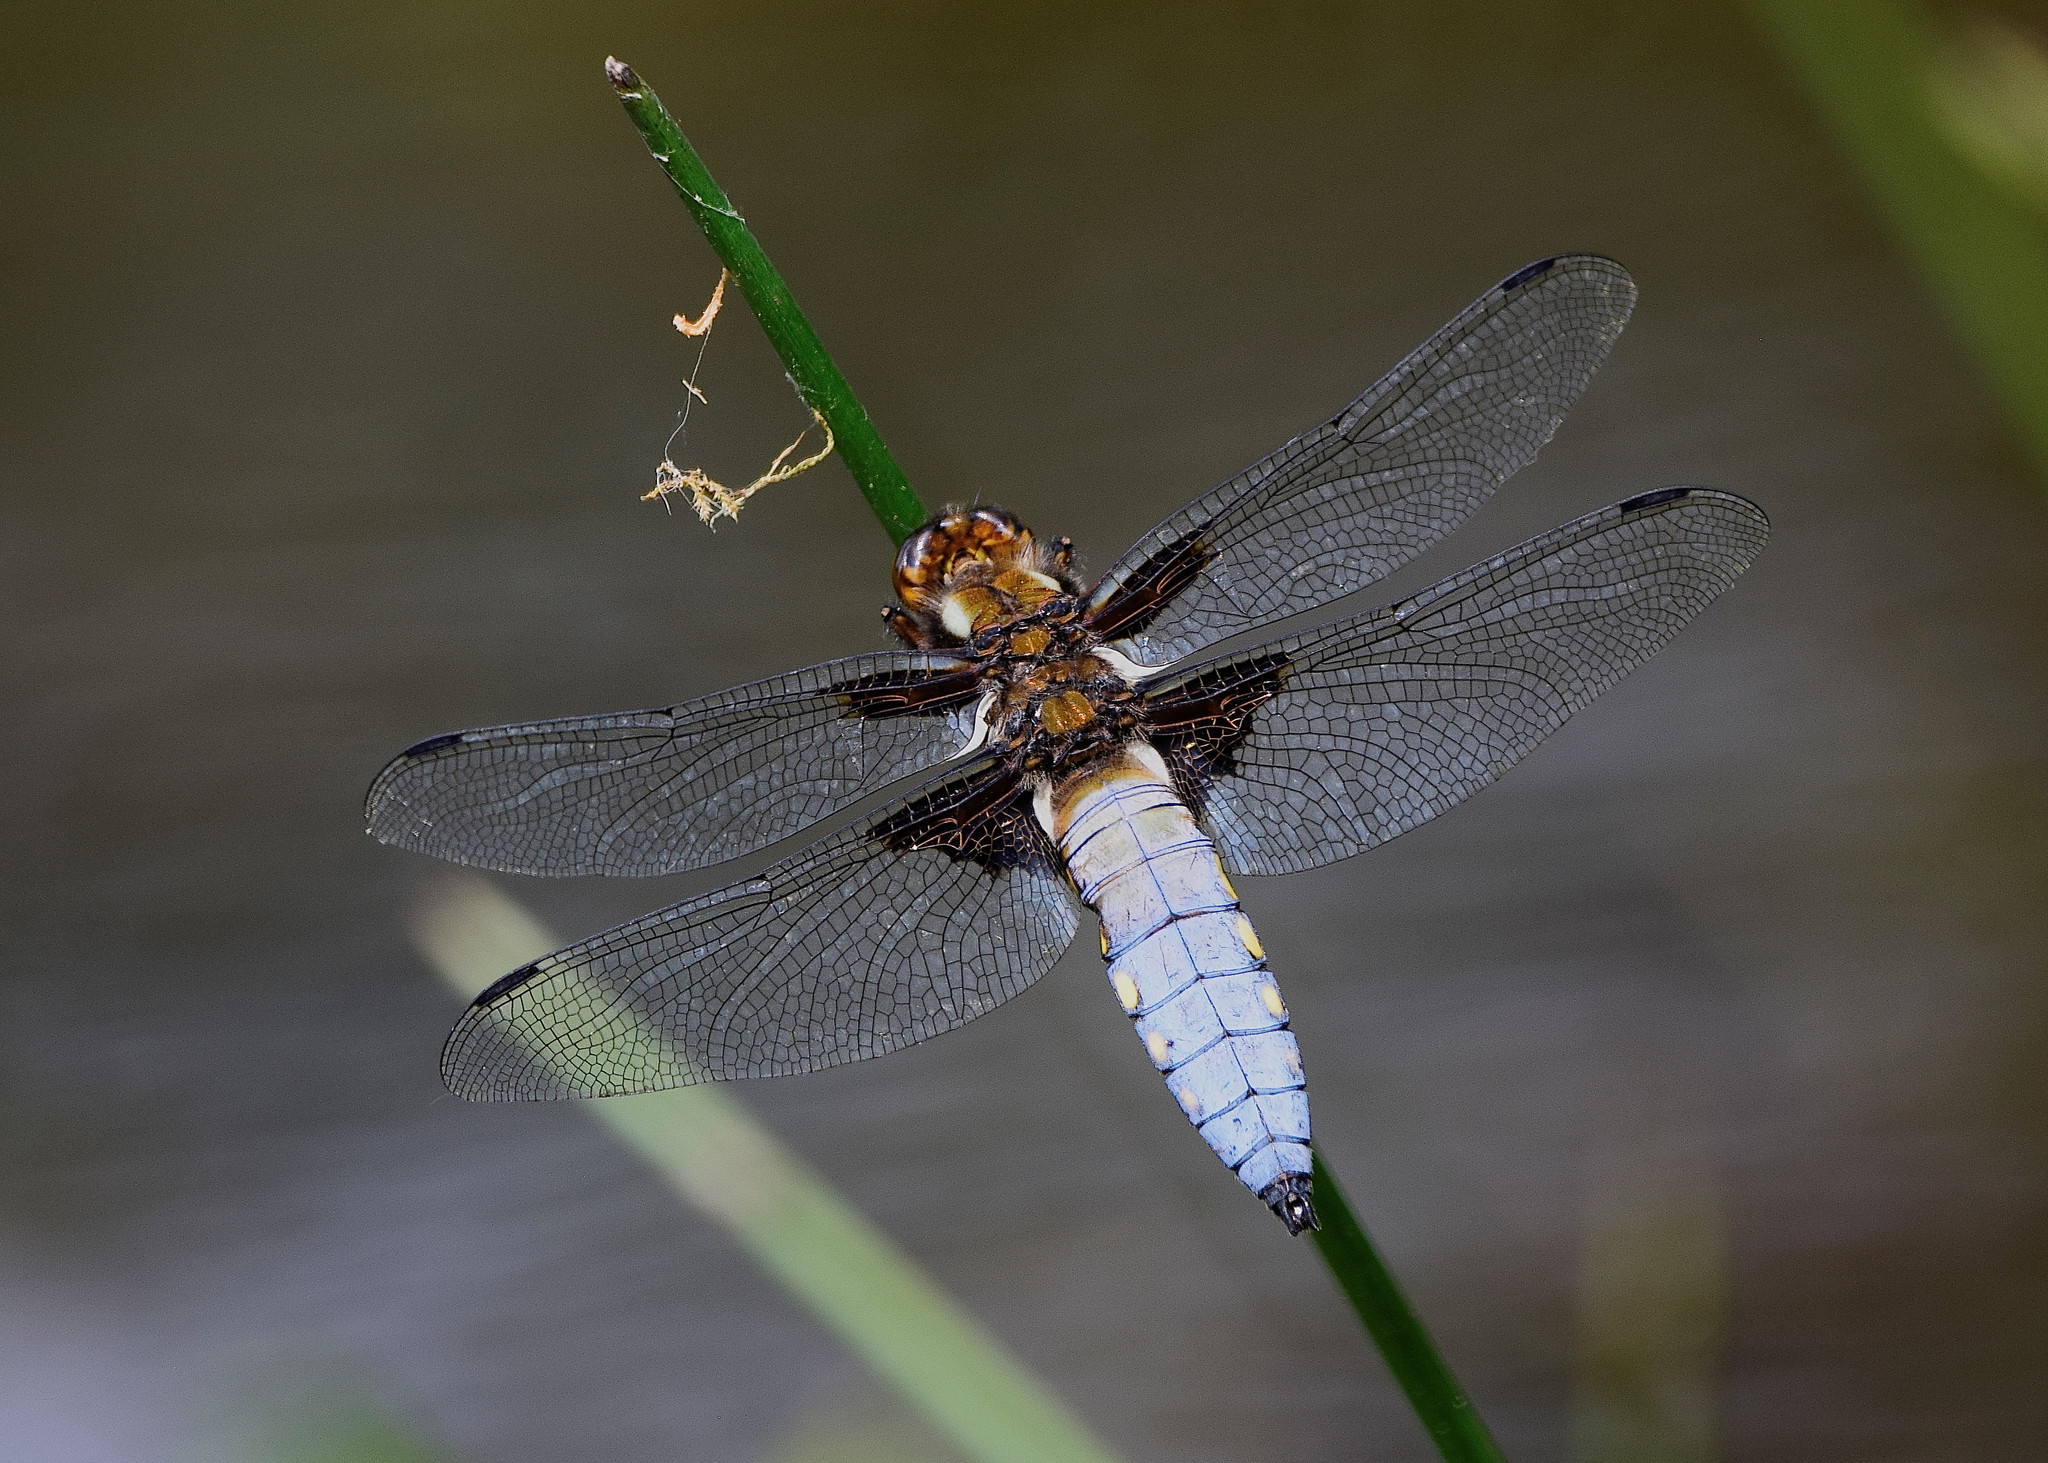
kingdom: Animalia
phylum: Arthropoda
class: Insecta
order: Odonata
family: Libellulidae
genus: Libellula
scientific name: Libellula depressa
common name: Broad-bodied chaser
